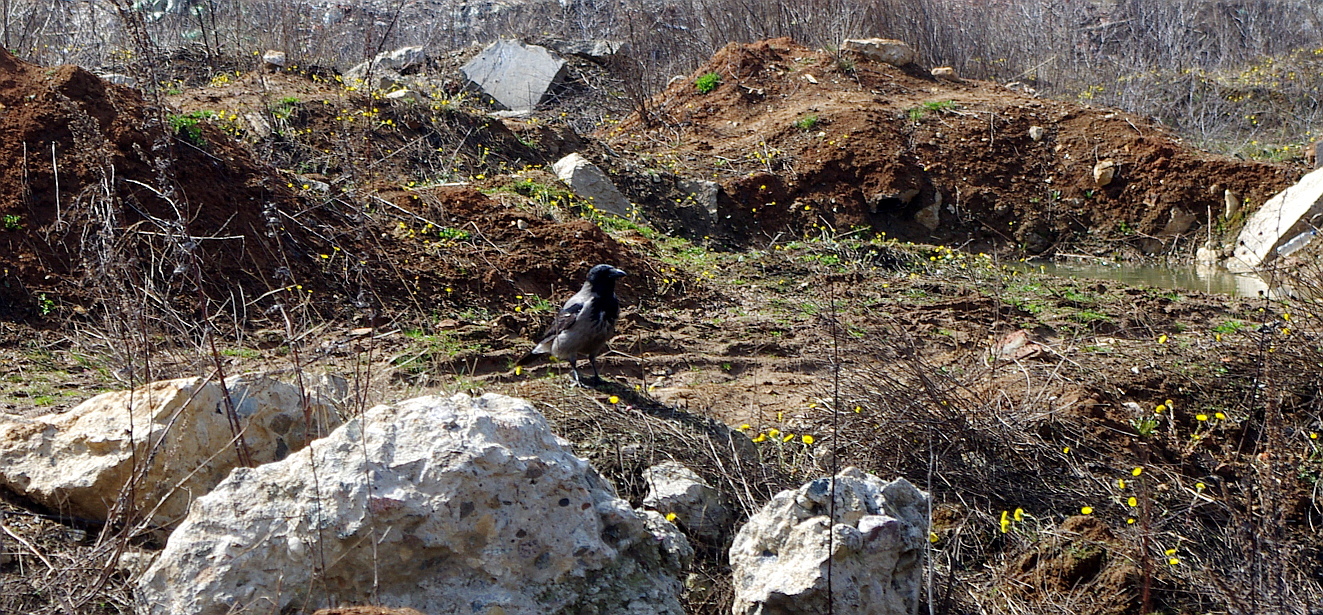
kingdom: Animalia
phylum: Chordata
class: Aves
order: Passeriformes
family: Corvidae
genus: Corvus
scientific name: Corvus cornix
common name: Hooded crow
